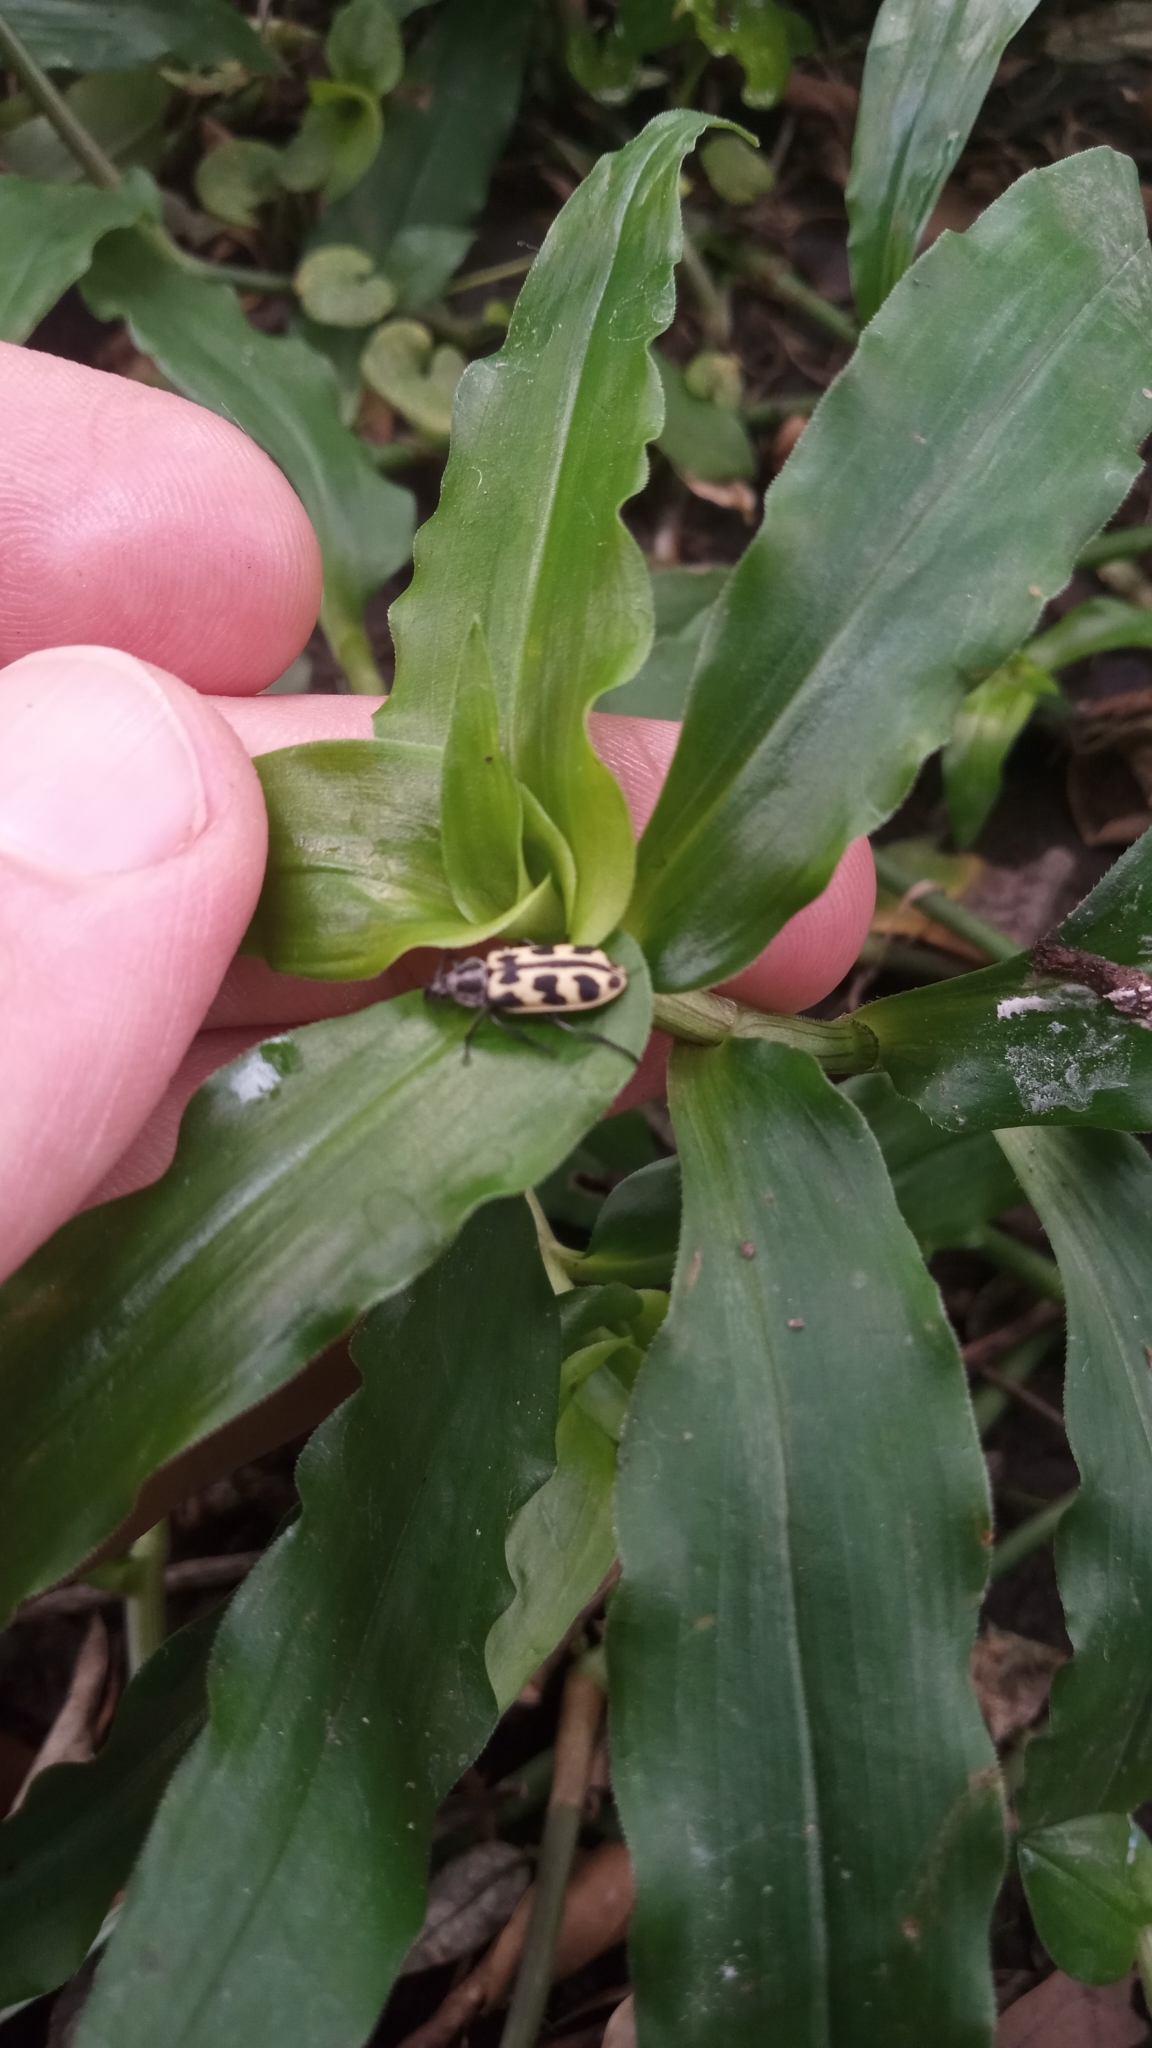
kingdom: Animalia
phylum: Arthropoda
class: Insecta
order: Coleoptera
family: Melyridae
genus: Astylus
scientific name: Astylus atromaculatus
